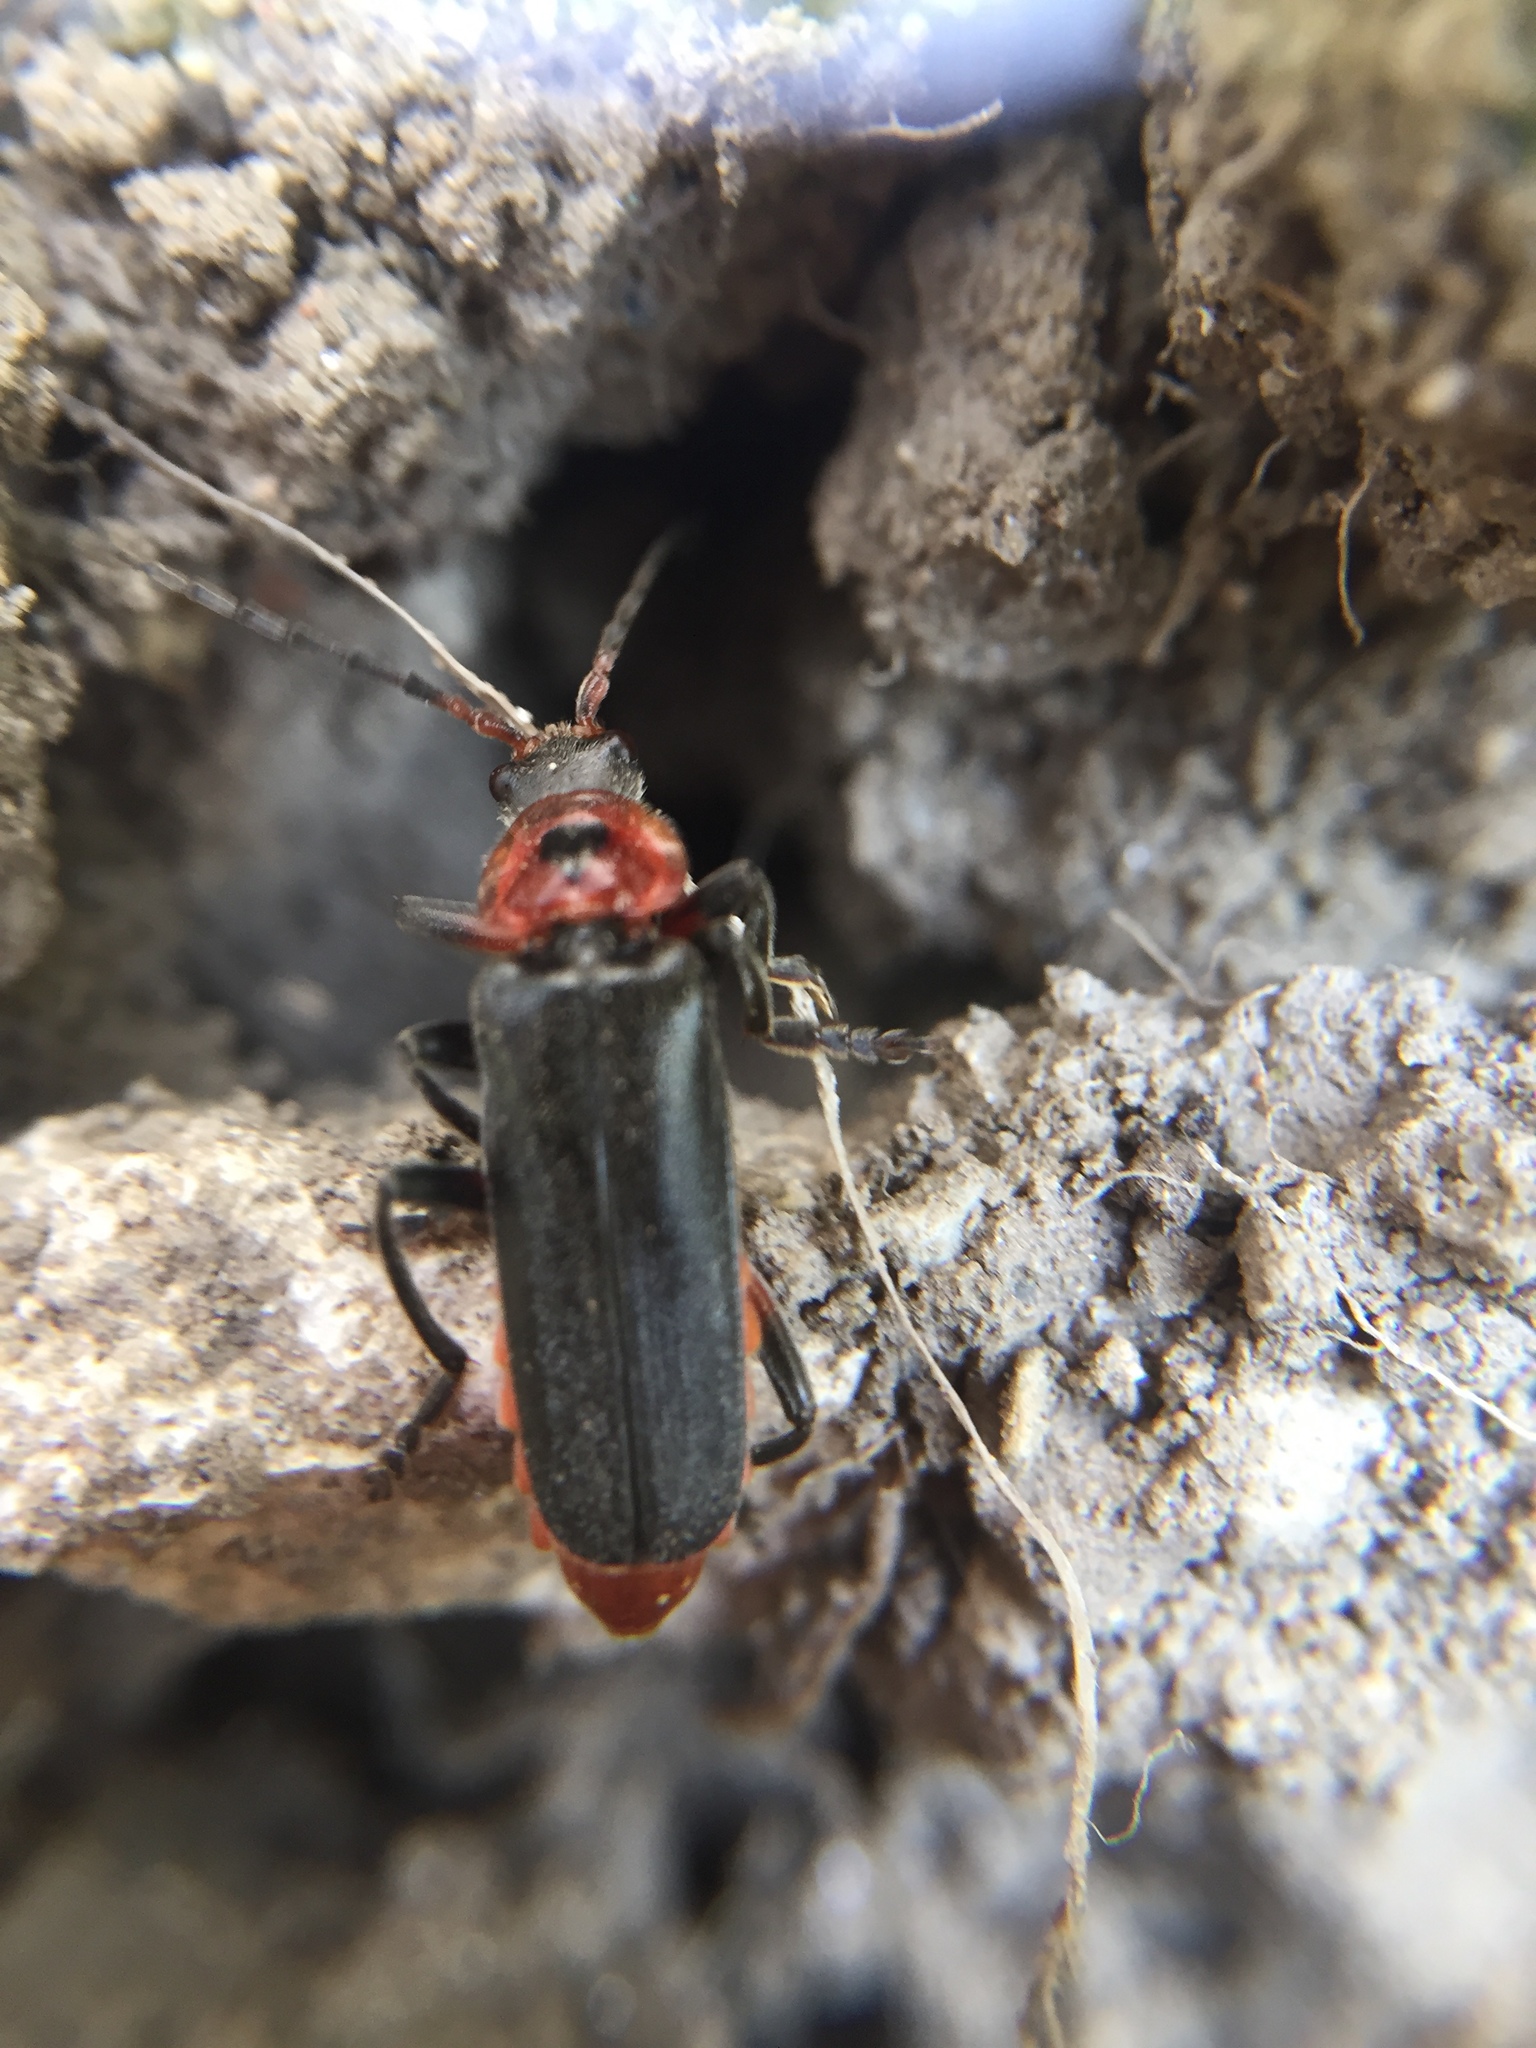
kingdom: Animalia
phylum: Arthropoda
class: Insecta
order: Coleoptera
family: Cantharidae
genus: Cantharis
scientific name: Cantharis rustica
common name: Soldier beetle
